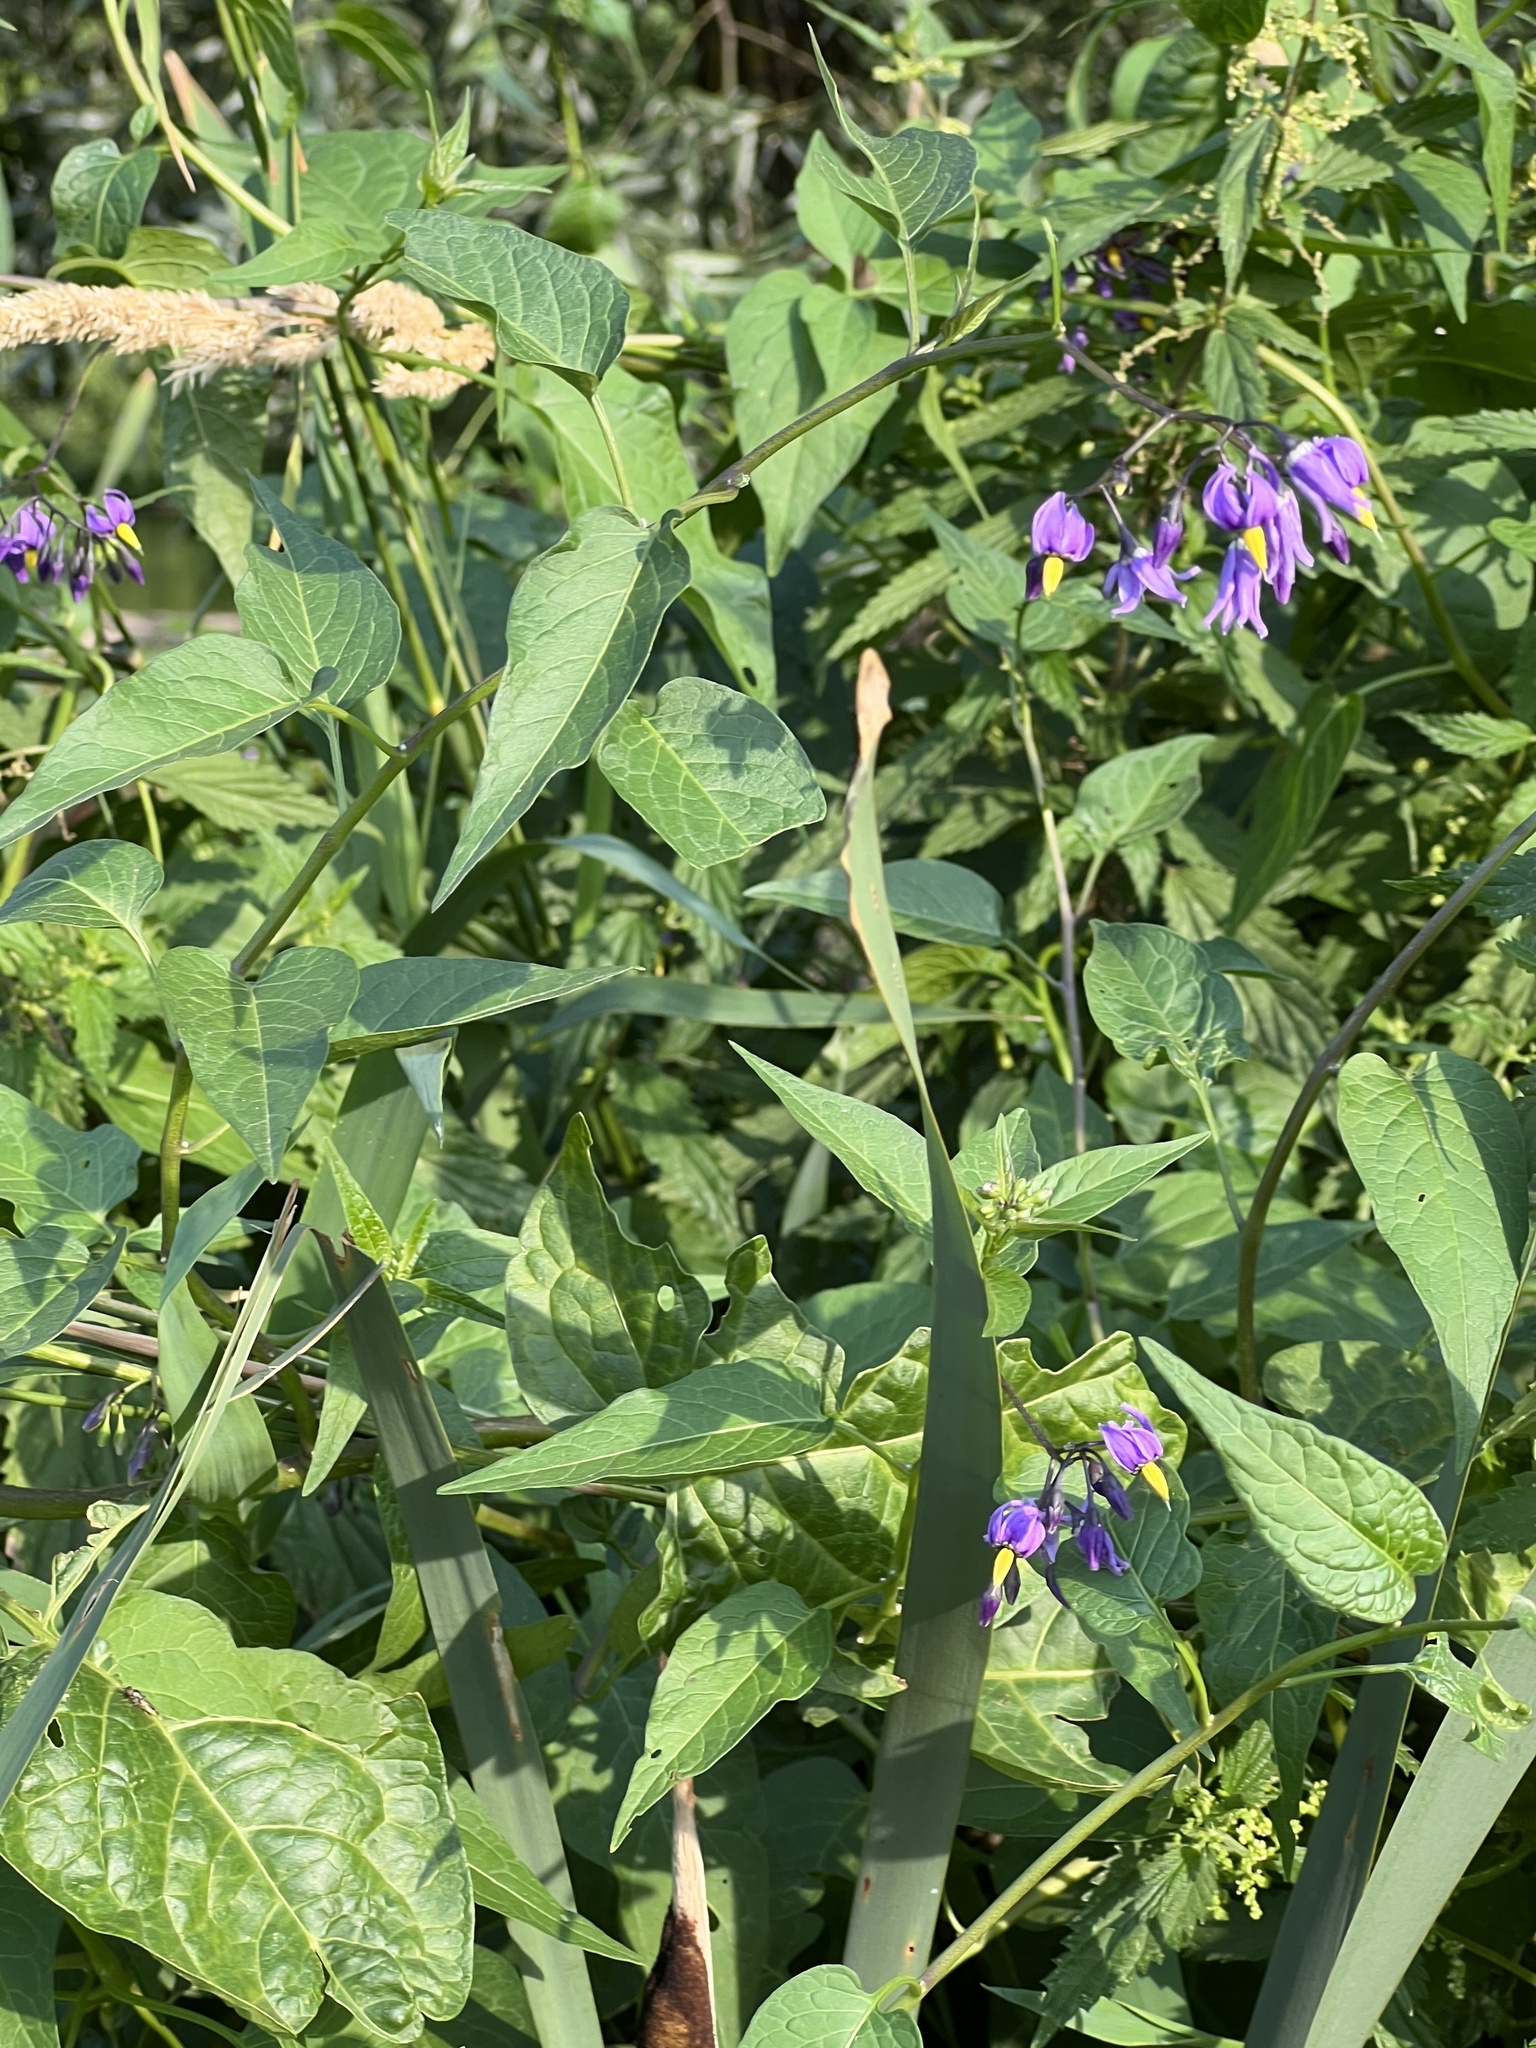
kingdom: Plantae
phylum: Tracheophyta
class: Magnoliopsida
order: Solanales
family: Solanaceae
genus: Solanum
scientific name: Solanum dulcamara
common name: Climbing nightshade
